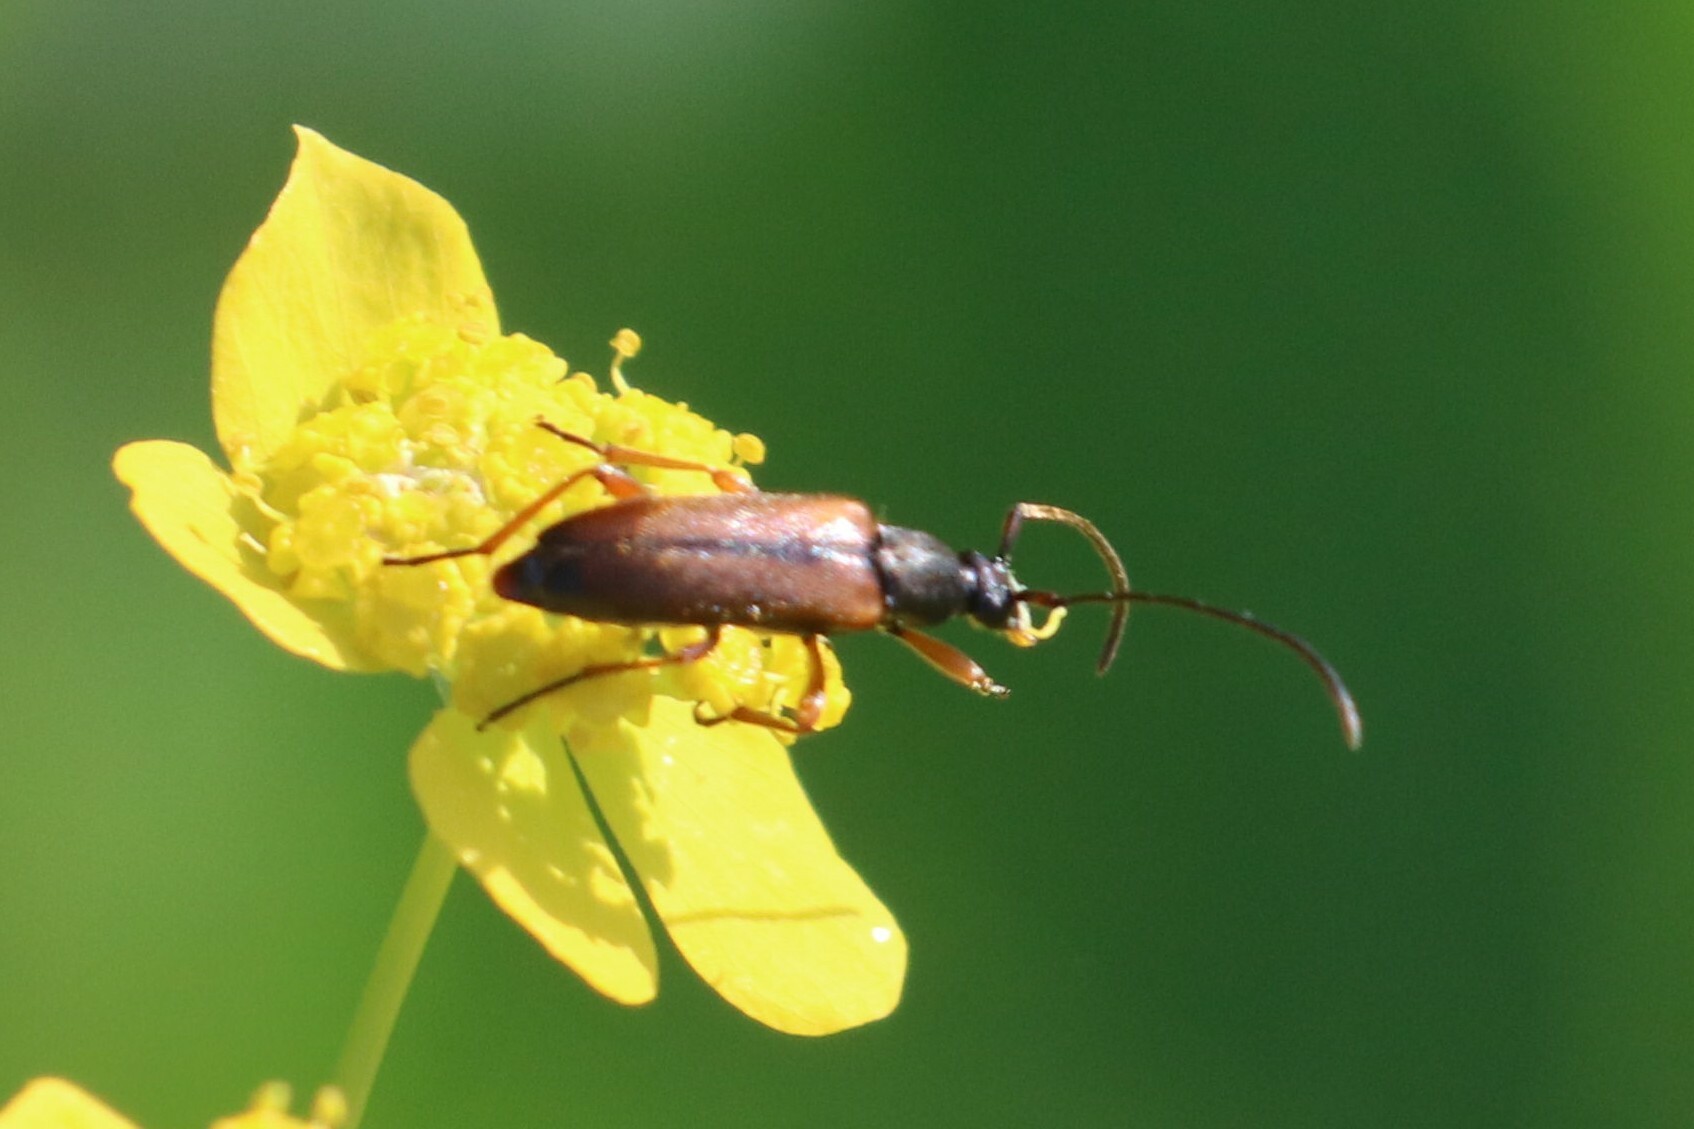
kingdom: Animalia
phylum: Arthropoda
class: Insecta
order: Coleoptera
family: Cerambycidae
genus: Alosterna
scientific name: Alosterna tabacicolor
